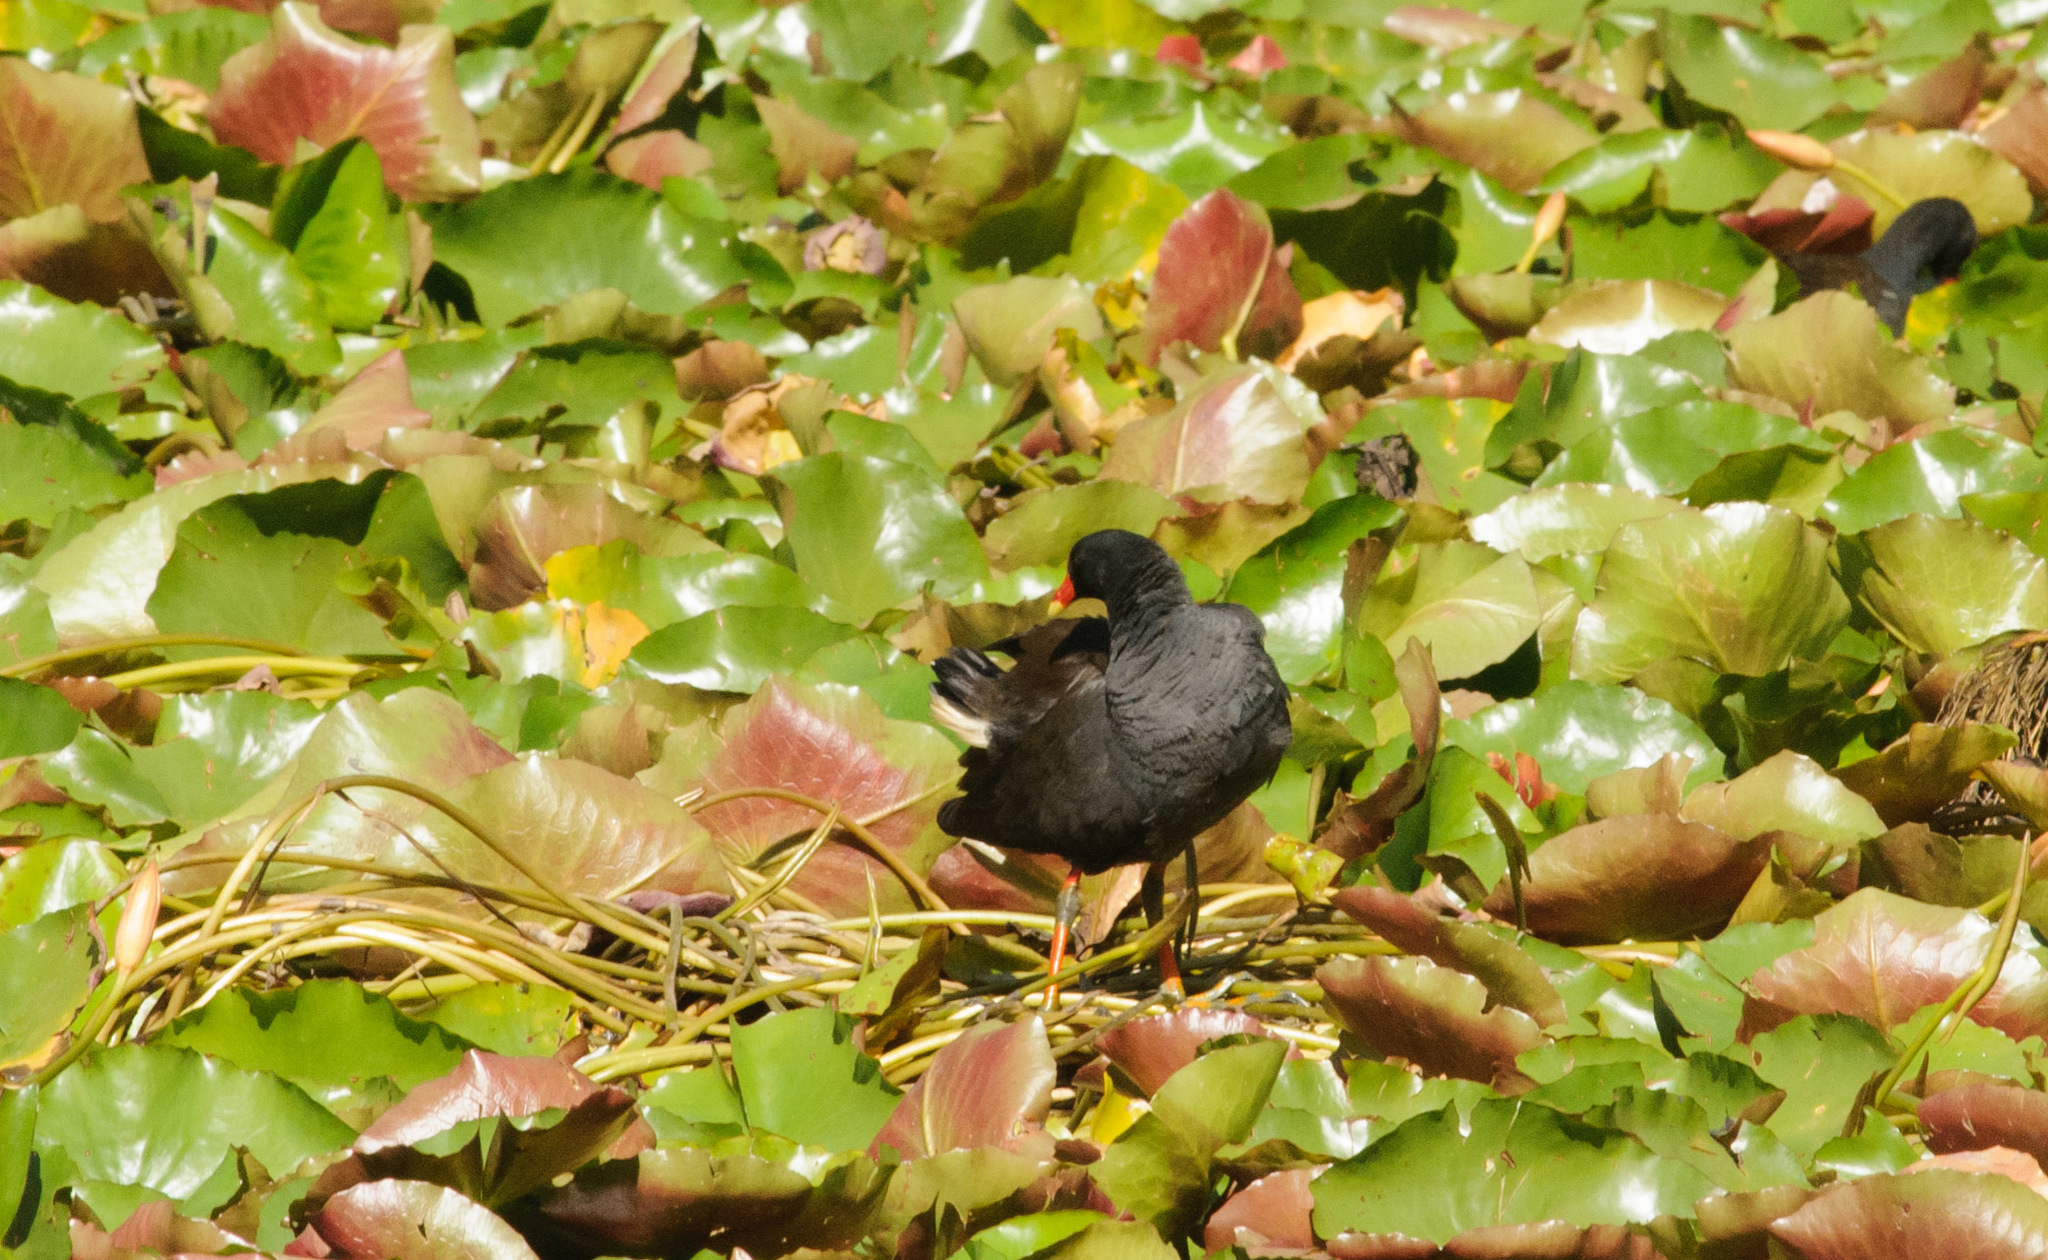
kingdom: Animalia
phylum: Chordata
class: Aves
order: Gruiformes
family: Rallidae
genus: Gallinula
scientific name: Gallinula tenebrosa
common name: Dusky moorhen
